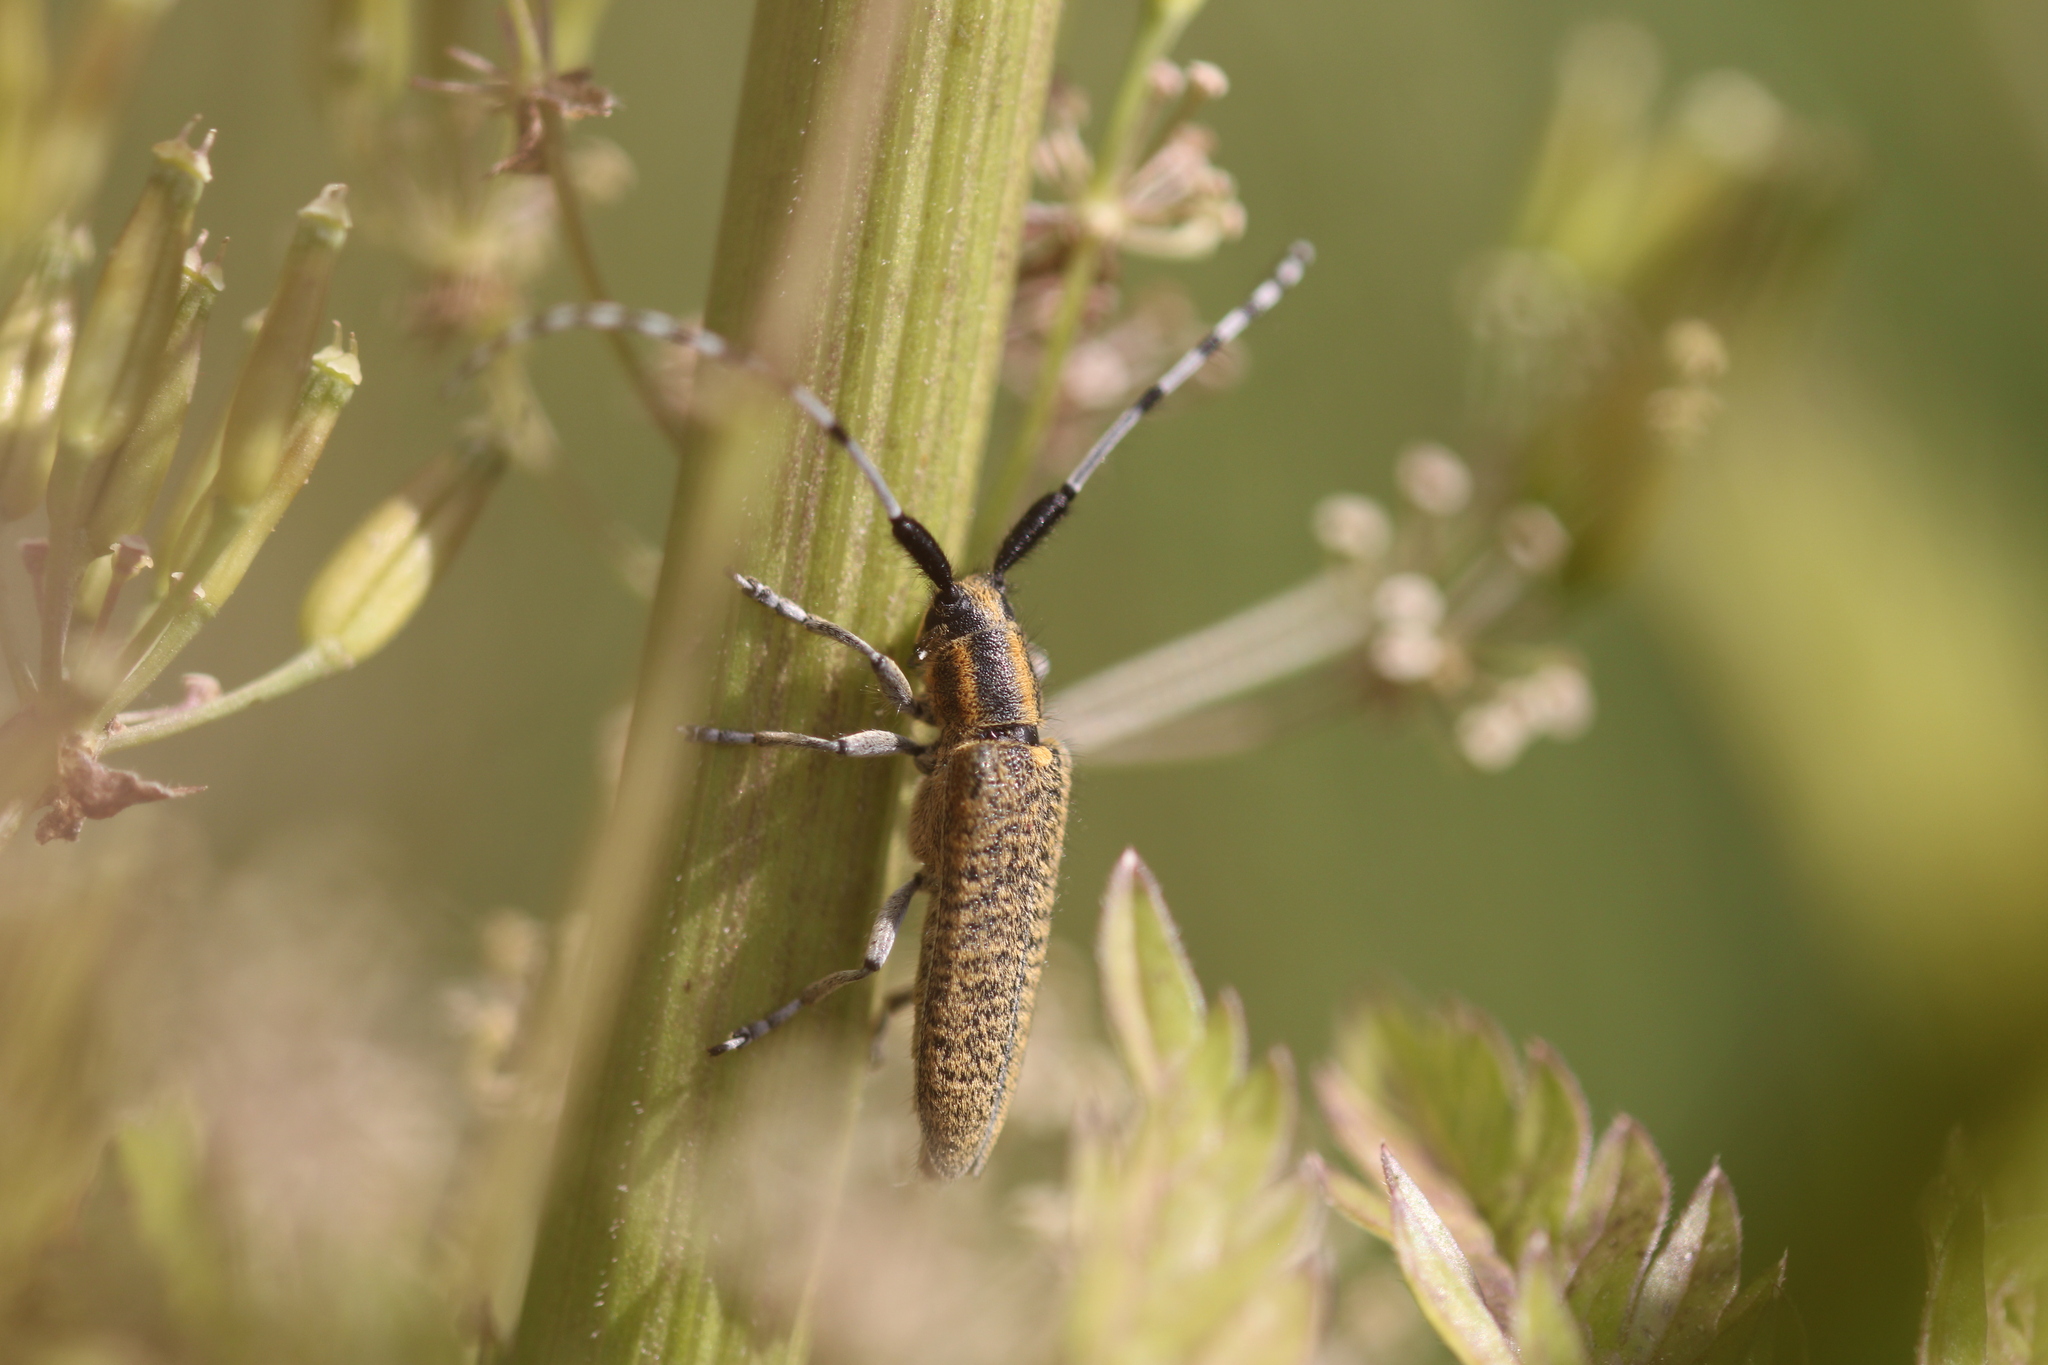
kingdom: Animalia
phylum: Arthropoda
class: Insecta
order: Coleoptera
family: Cerambycidae
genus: Agapanthia
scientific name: Agapanthia villosoviridescens
